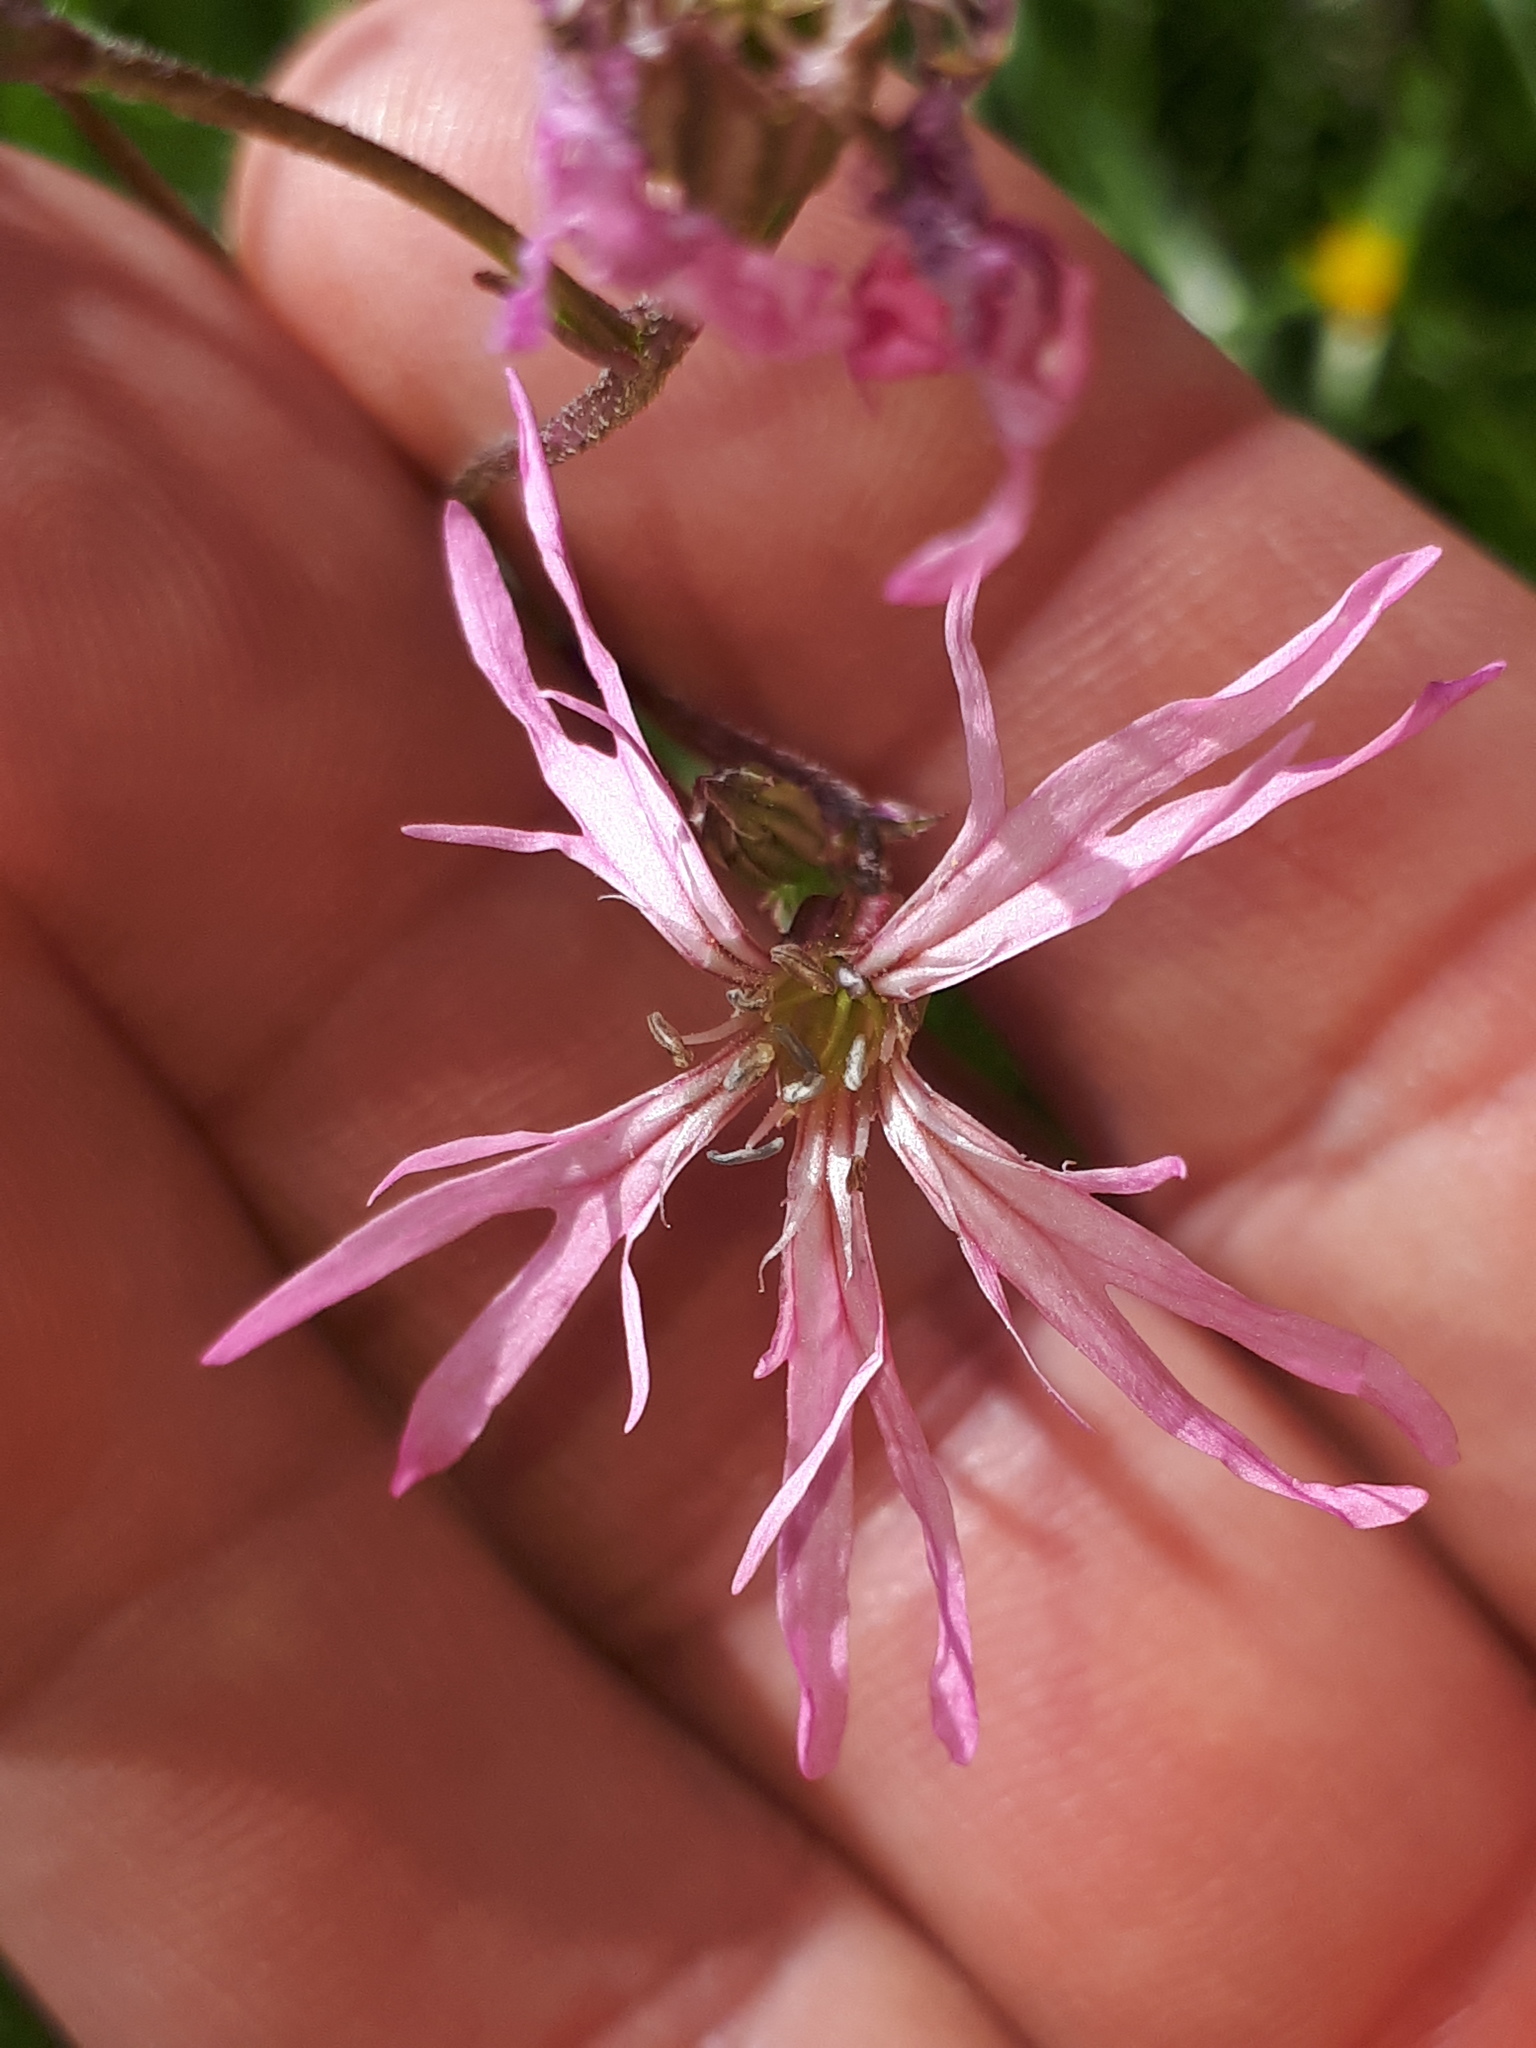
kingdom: Plantae
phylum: Tracheophyta
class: Magnoliopsida
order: Caryophyllales
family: Caryophyllaceae
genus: Silene
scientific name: Silene flos-cuculi
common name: Ragged-robin
